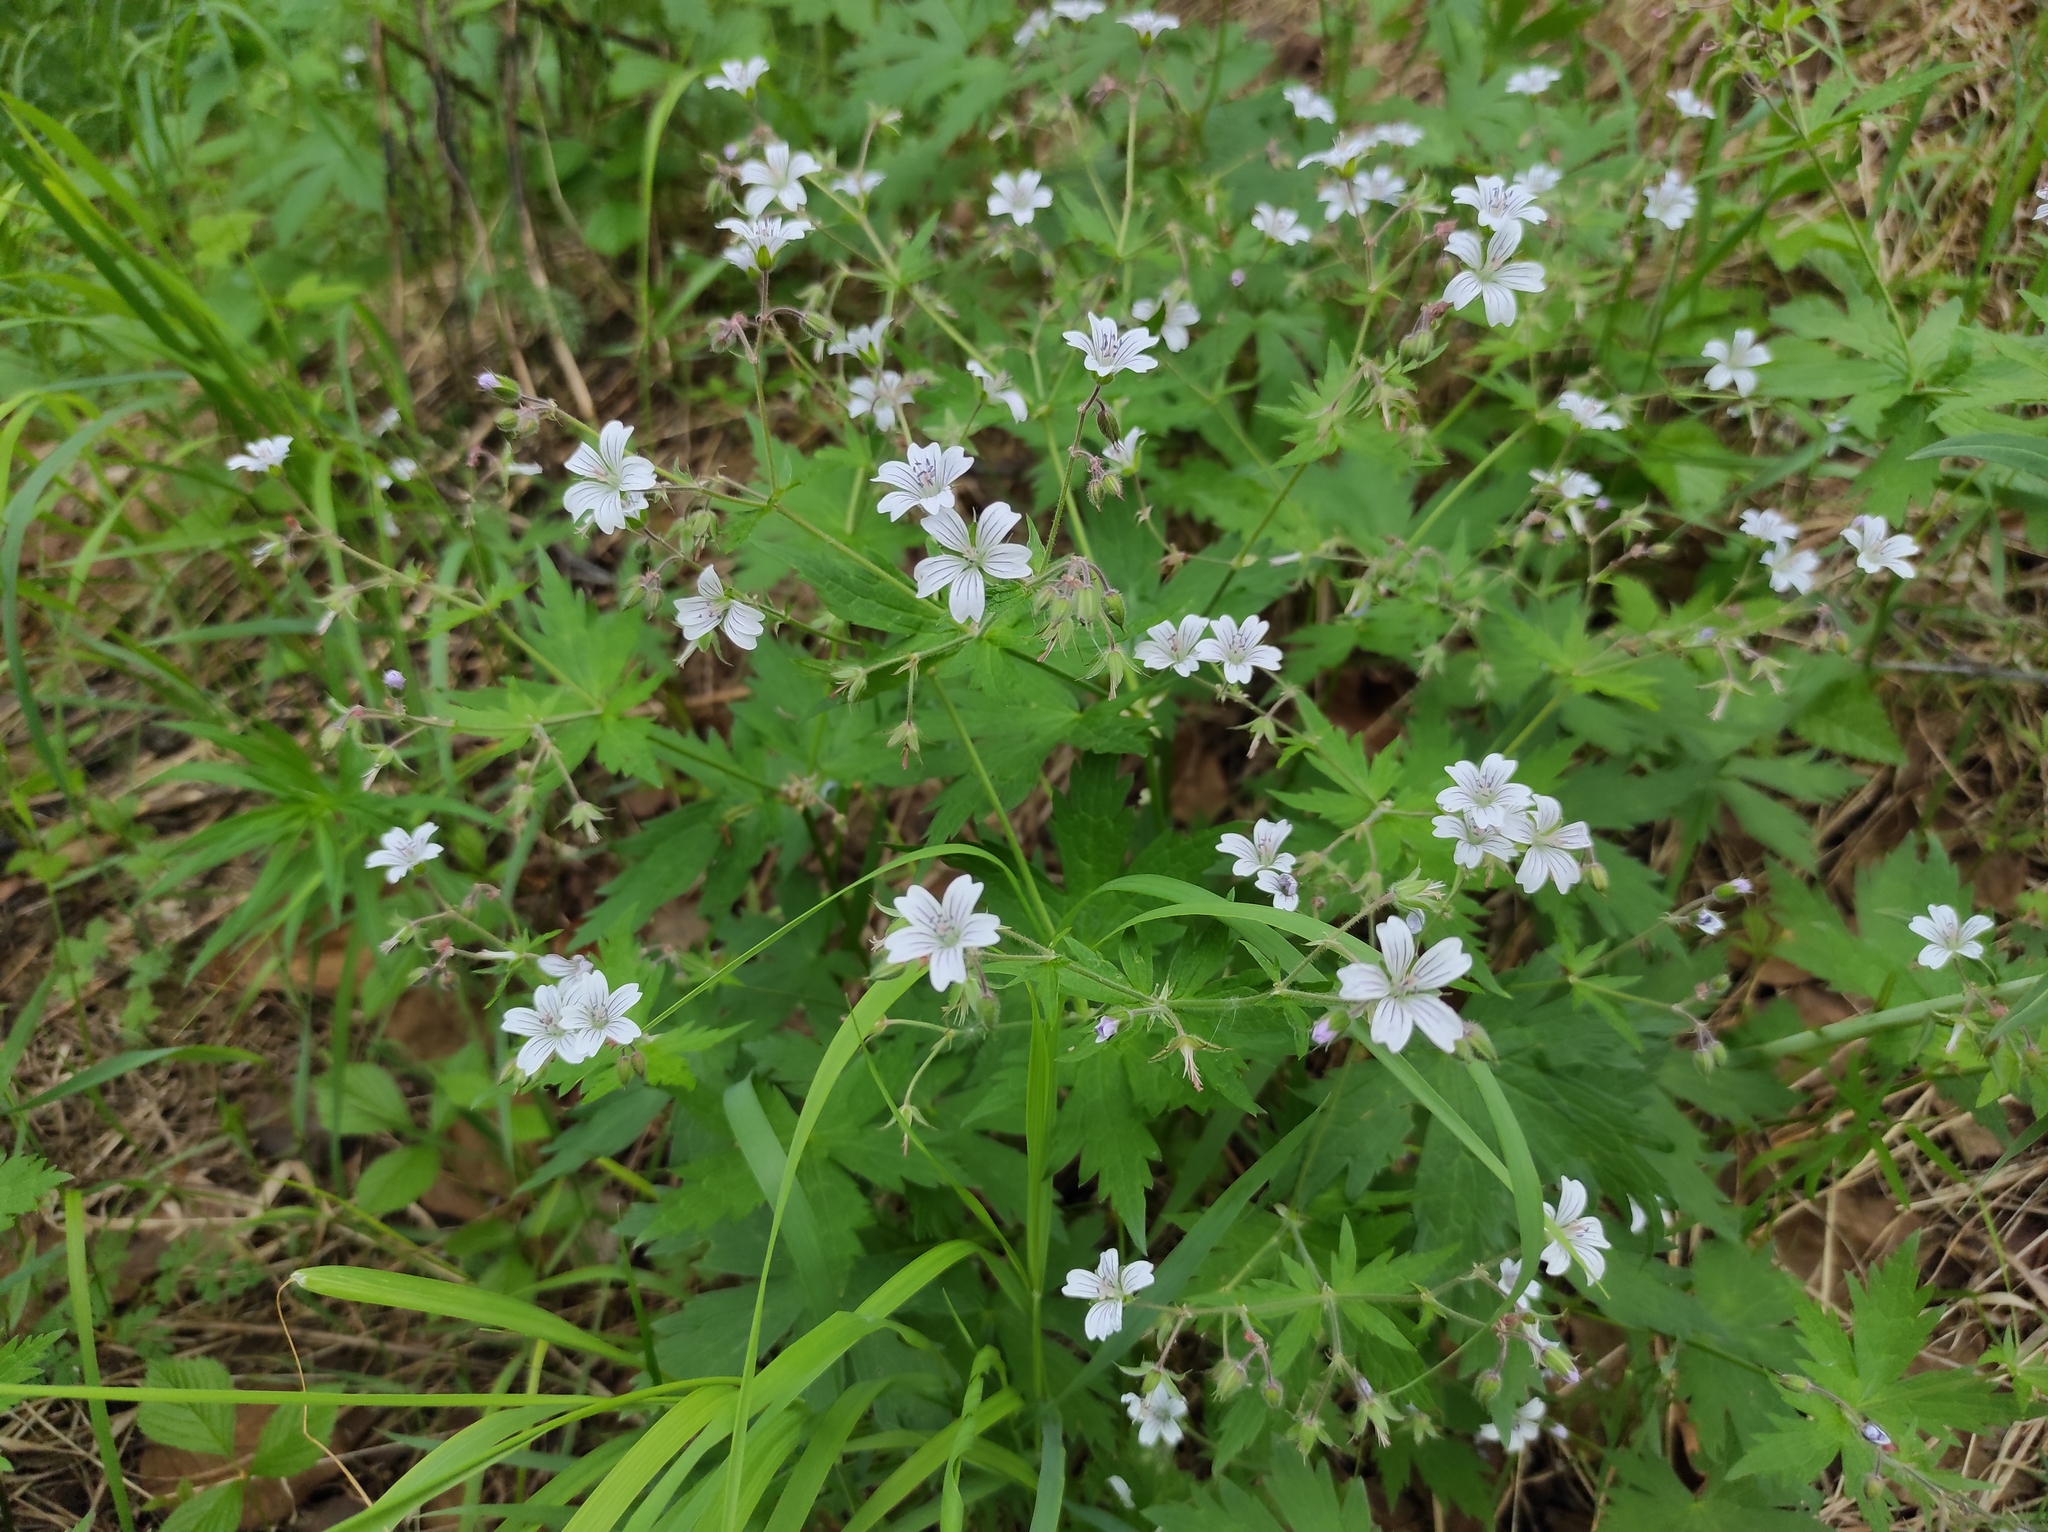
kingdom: Plantae
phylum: Tracheophyta
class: Magnoliopsida
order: Geraniales
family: Geraniaceae
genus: Geranium
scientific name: Geranium sylvaticum
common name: Wood crane's-bill
